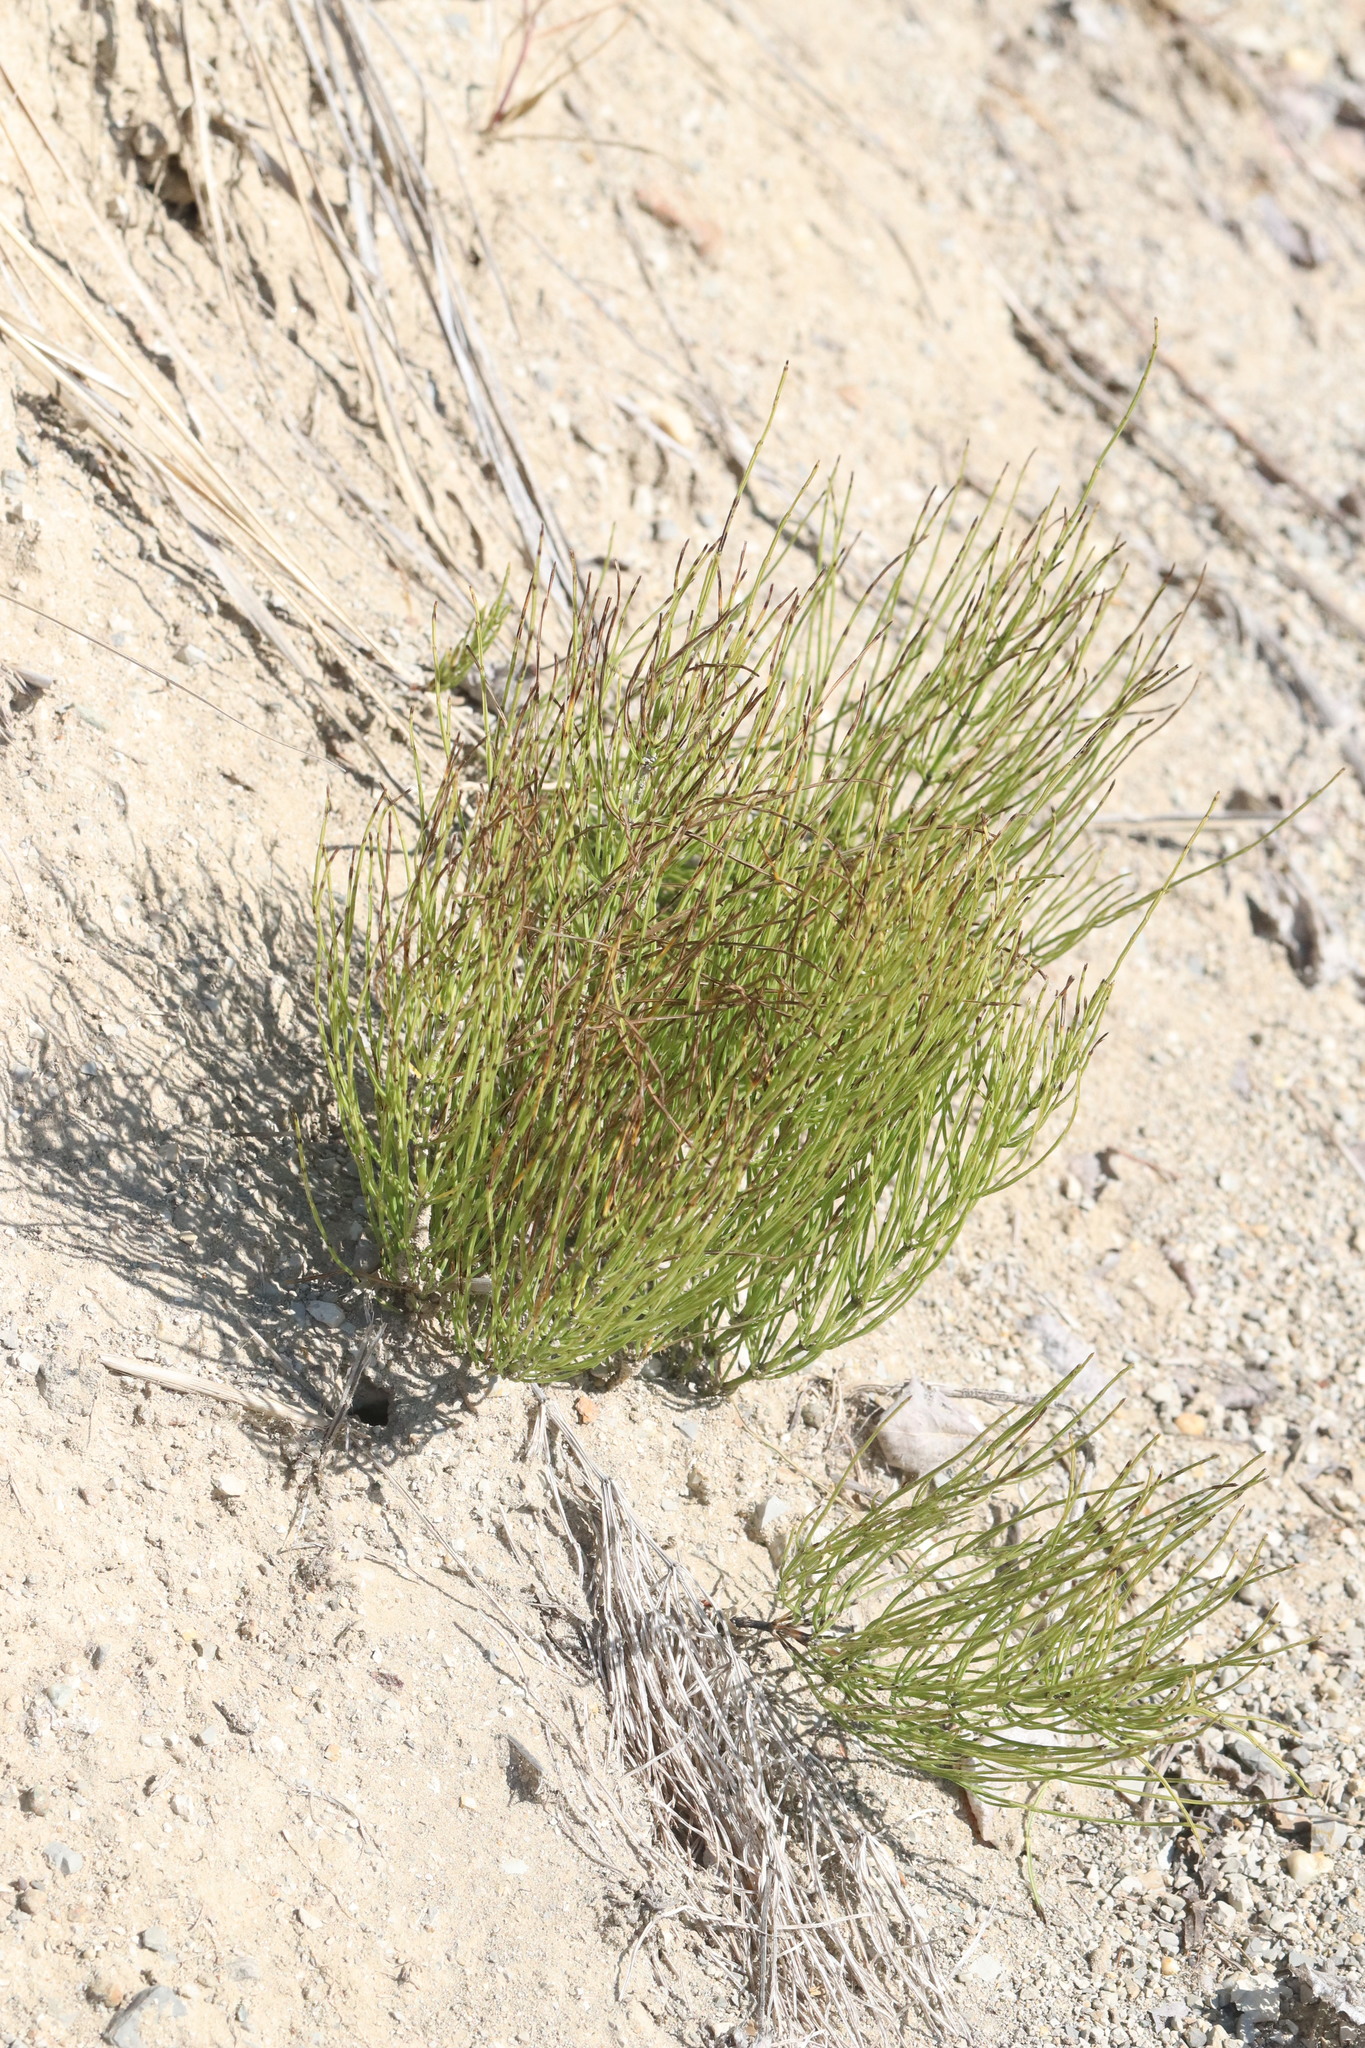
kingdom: Plantae
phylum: Tracheophyta
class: Polypodiopsida
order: Equisetales
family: Equisetaceae
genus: Equisetum
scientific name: Equisetum arvense
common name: Field horsetail
